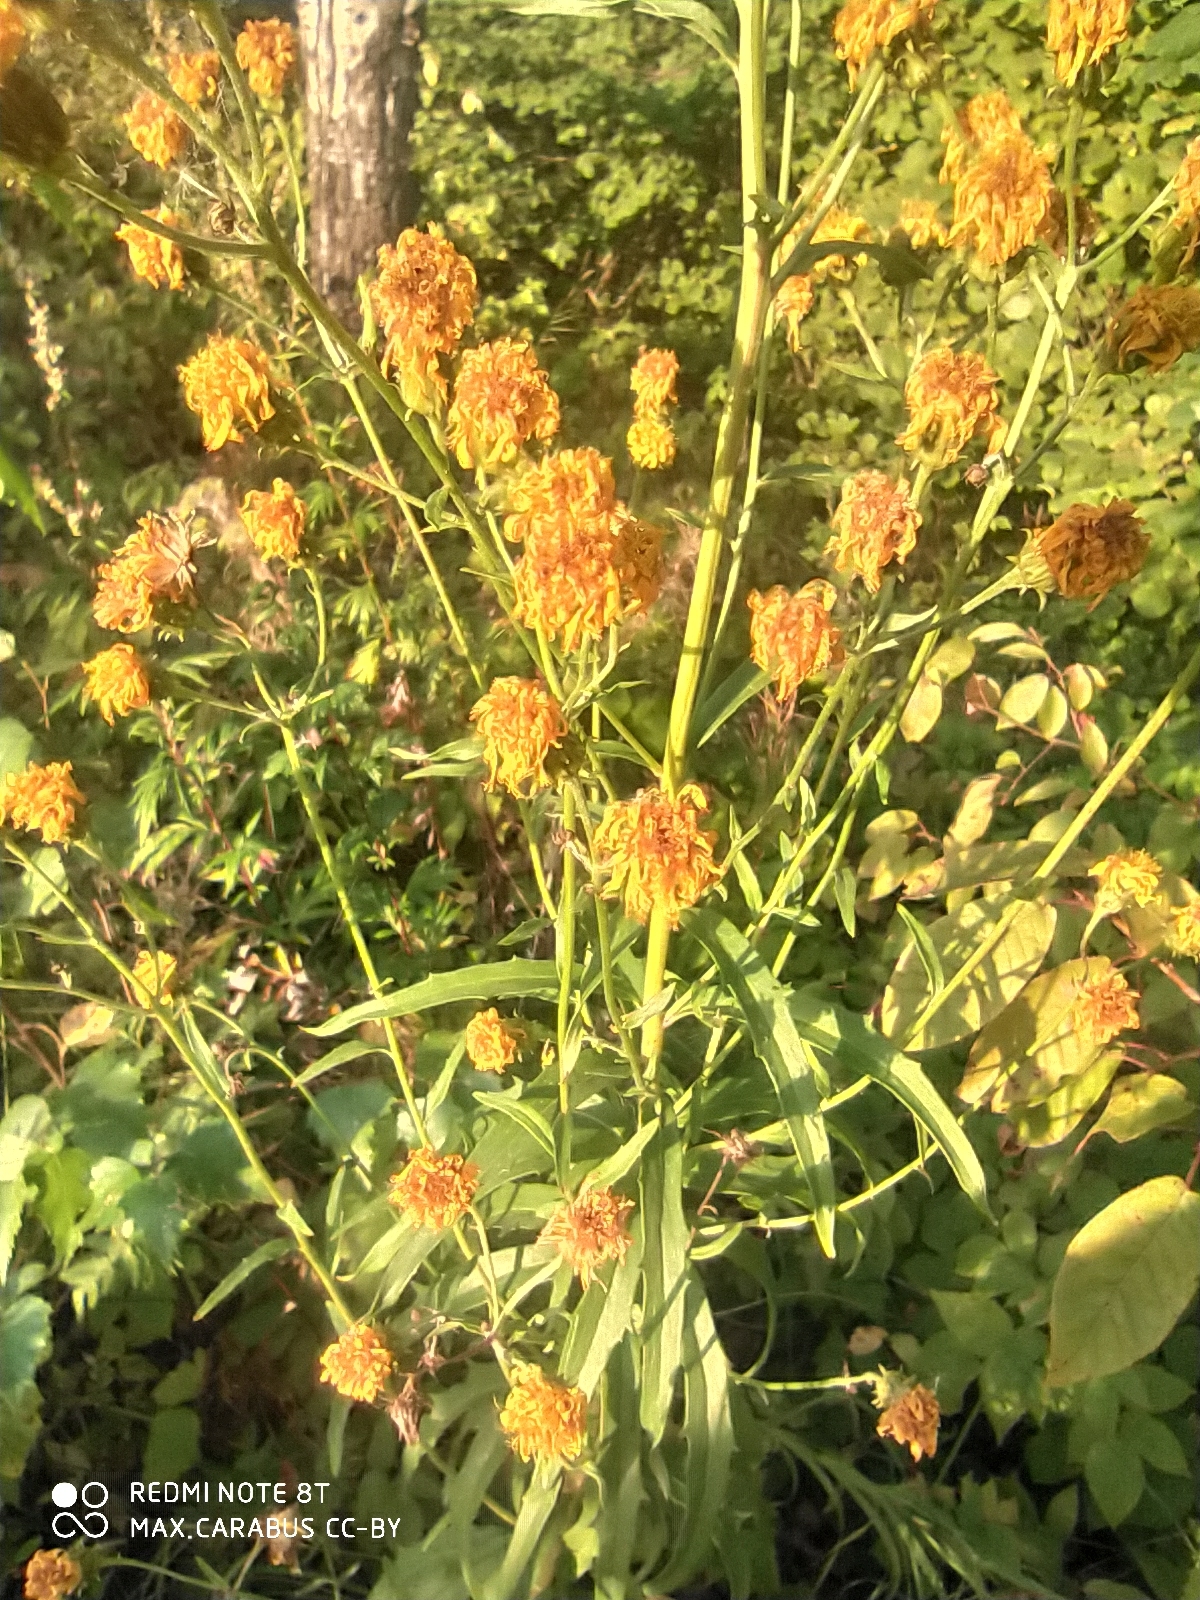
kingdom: Plantae
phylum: Tracheophyta
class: Magnoliopsida
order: Asterales
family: Asteraceae
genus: Hieracium
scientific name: Hieracium umbellatum
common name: Northern hawkweed
